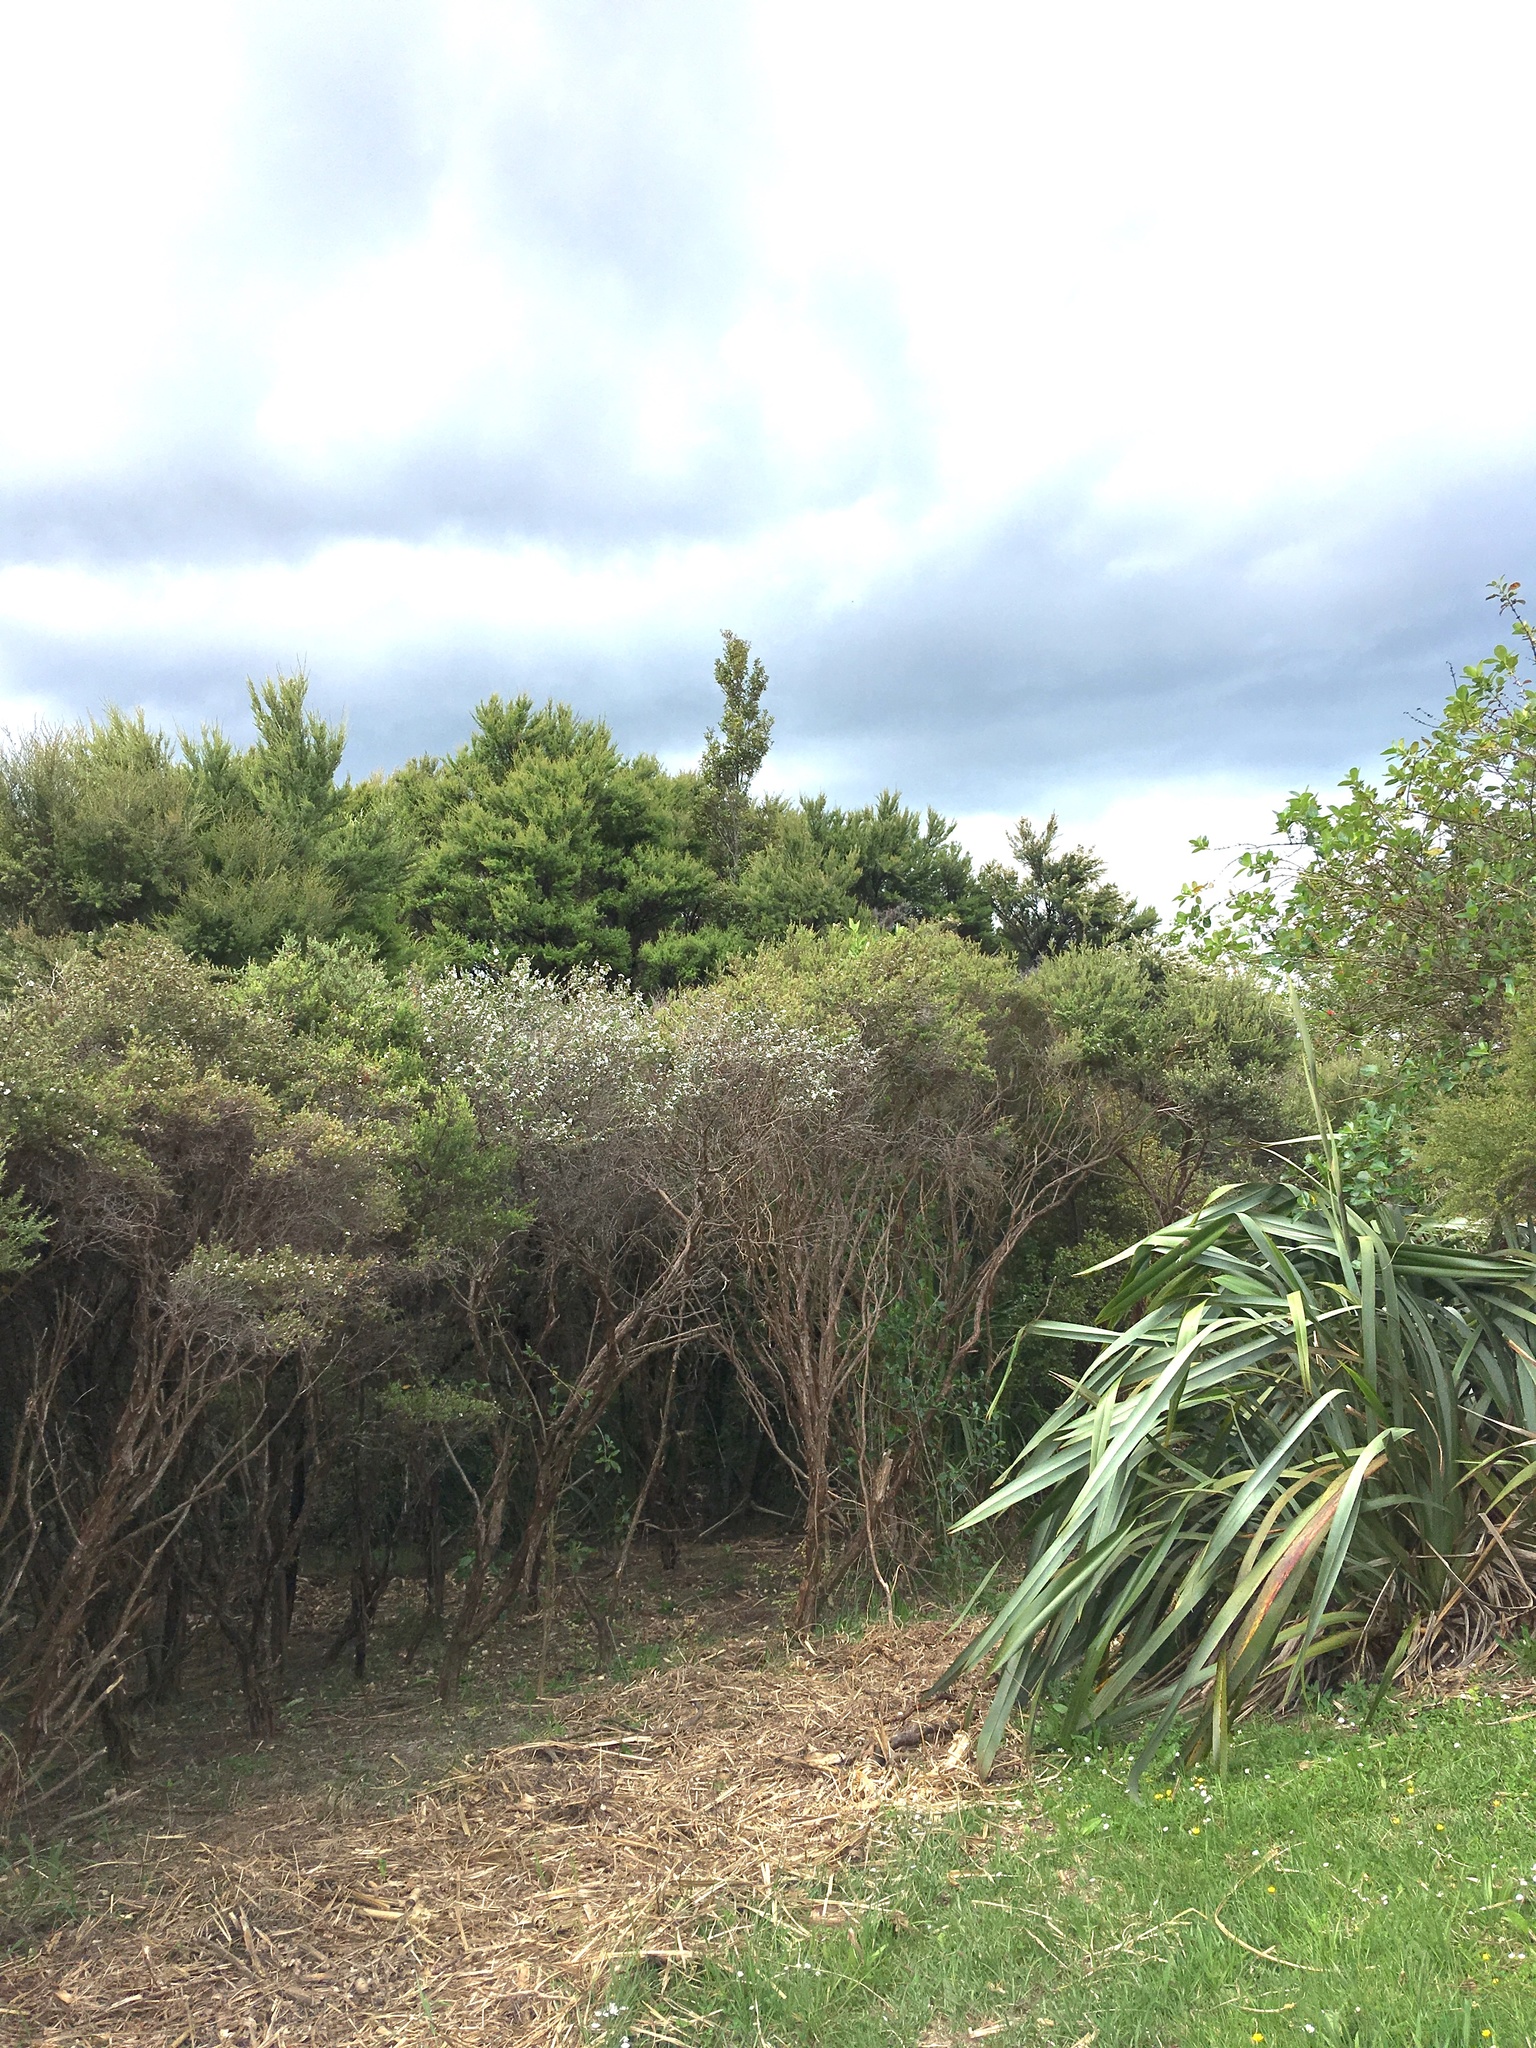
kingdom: Plantae
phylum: Tracheophyta
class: Liliopsida
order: Poales
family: Poaceae
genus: Cenchrus
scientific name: Cenchrus clandestinus
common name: Kikuyugrass
